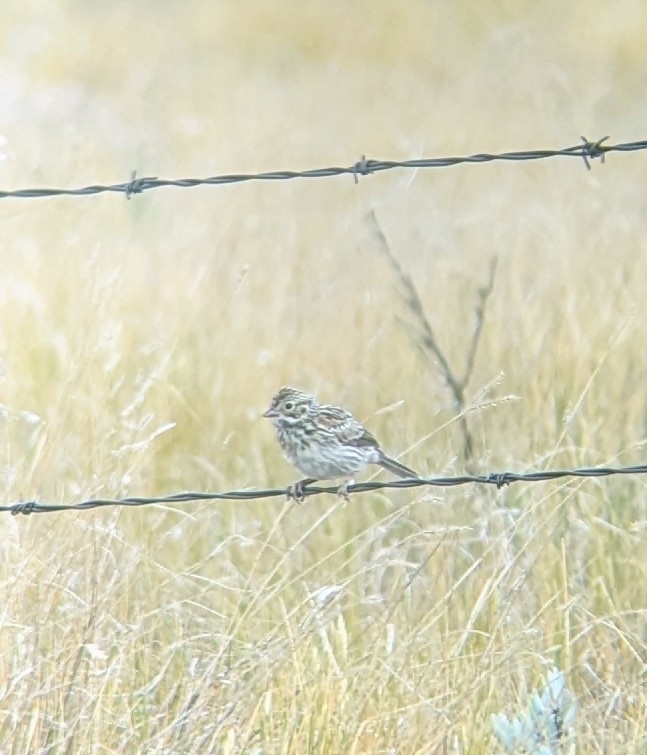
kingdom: Animalia
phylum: Chordata
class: Aves
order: Passeriformes
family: Passerellidae
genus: Pooecetes
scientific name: Pooecetes gramineus
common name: Vesper sparrow
